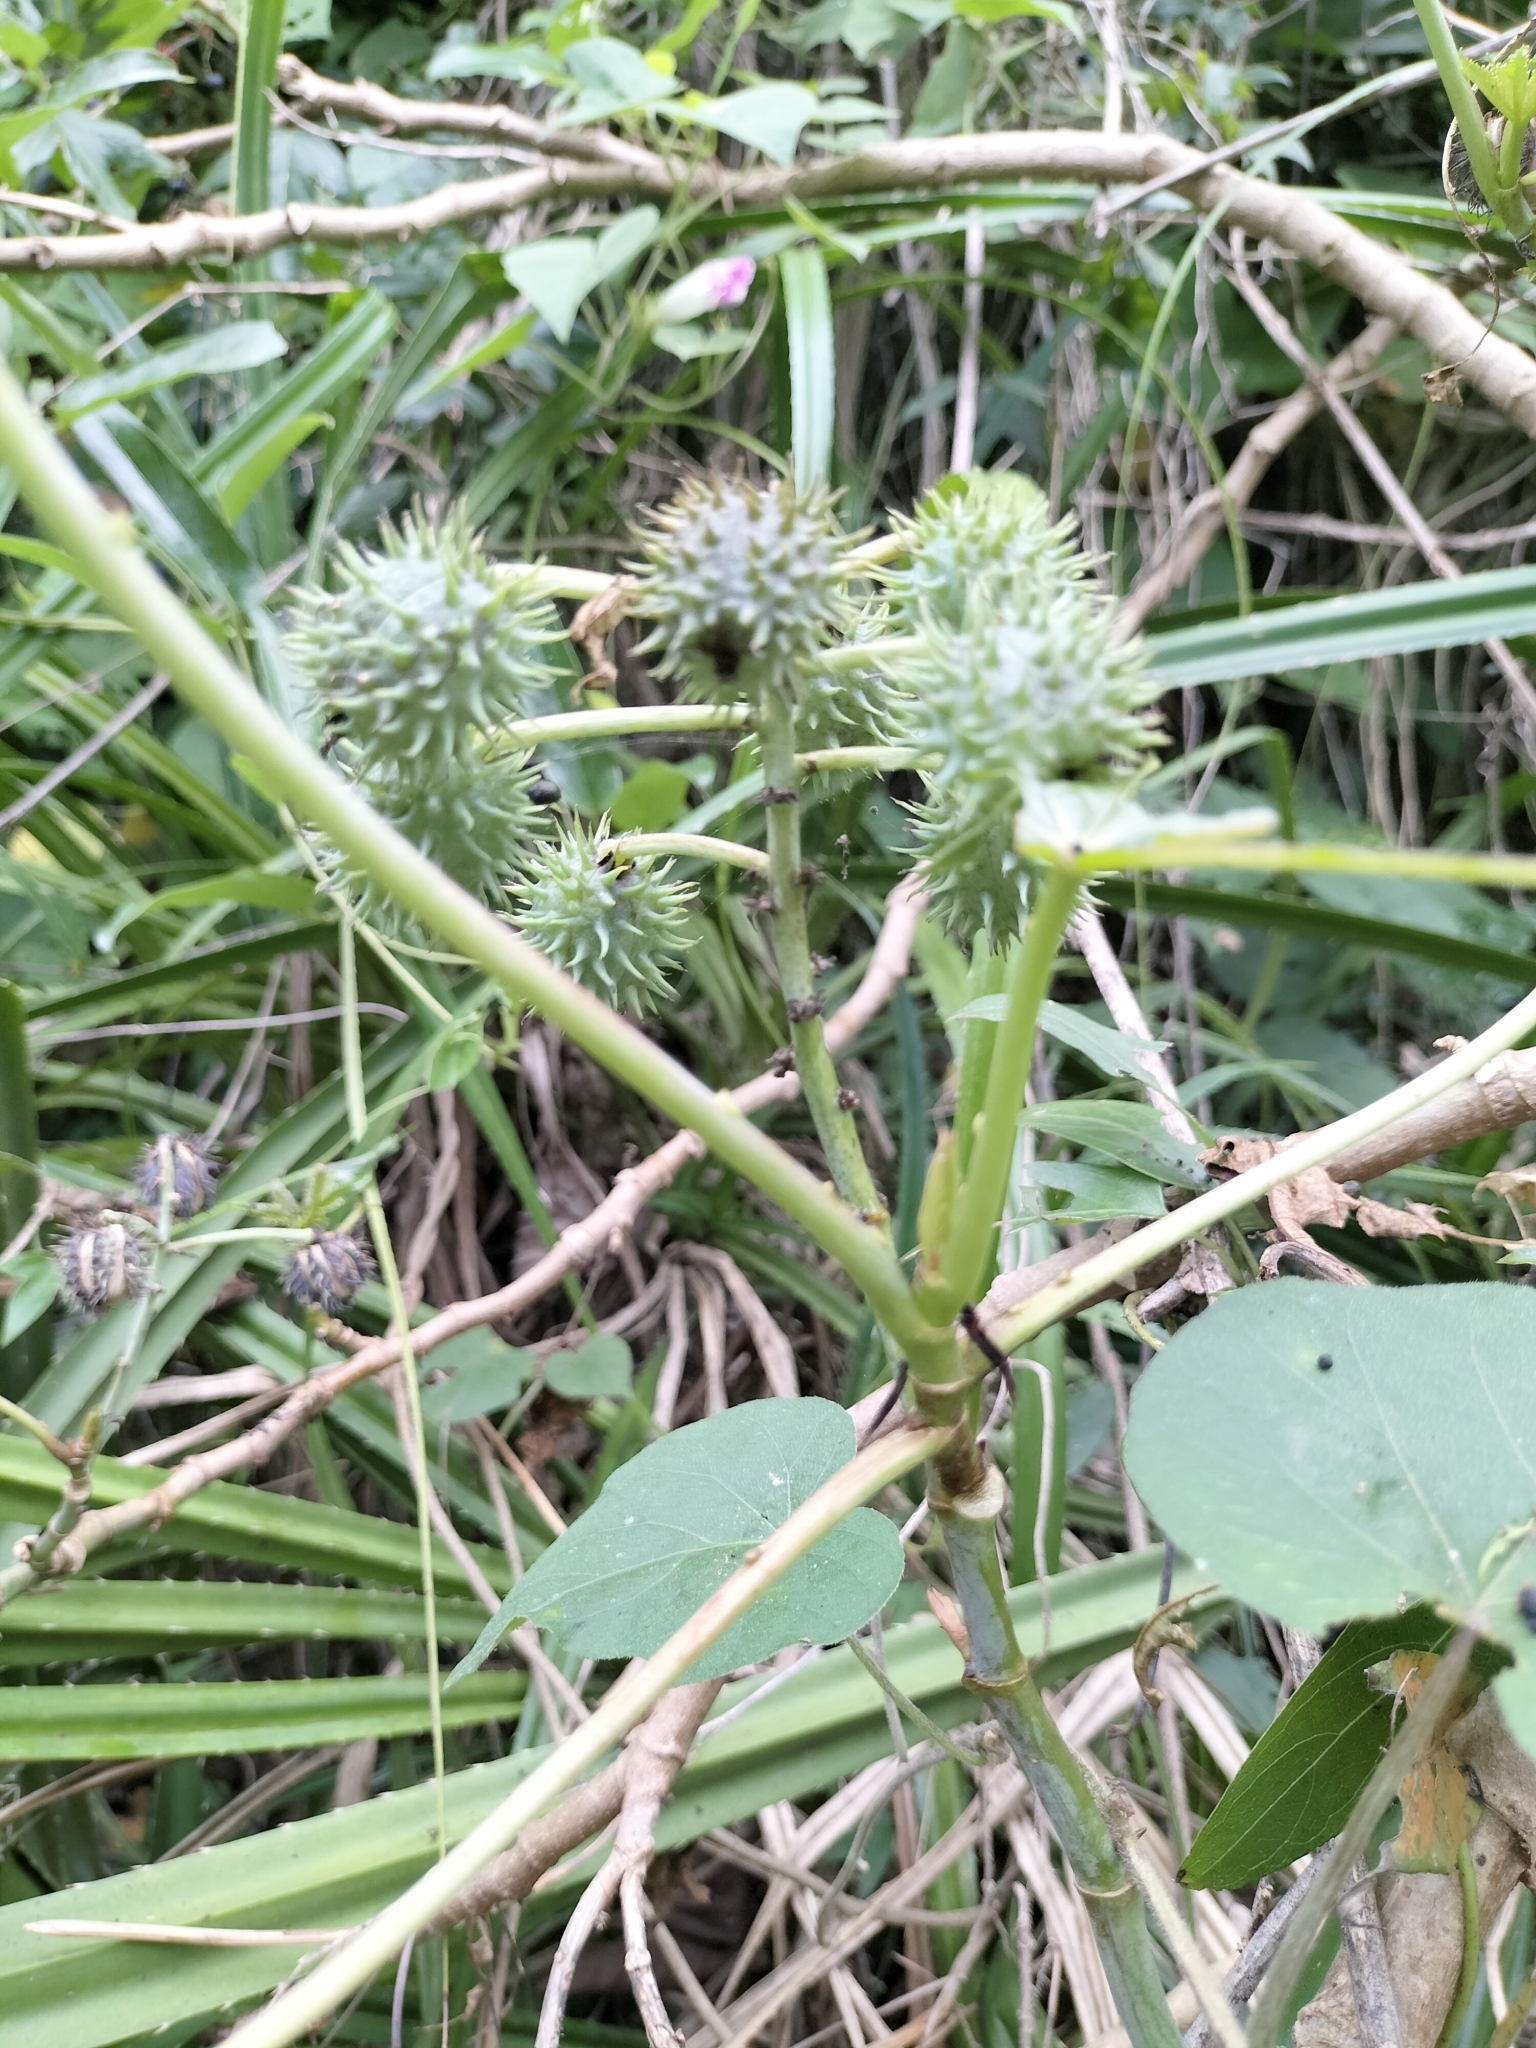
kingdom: Plantae
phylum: Tracheophyta
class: Magnoliopsida
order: Malpighiales
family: Euphorbiaceae
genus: Ricinus
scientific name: Ricinus communis
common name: Castor-oil-plant
